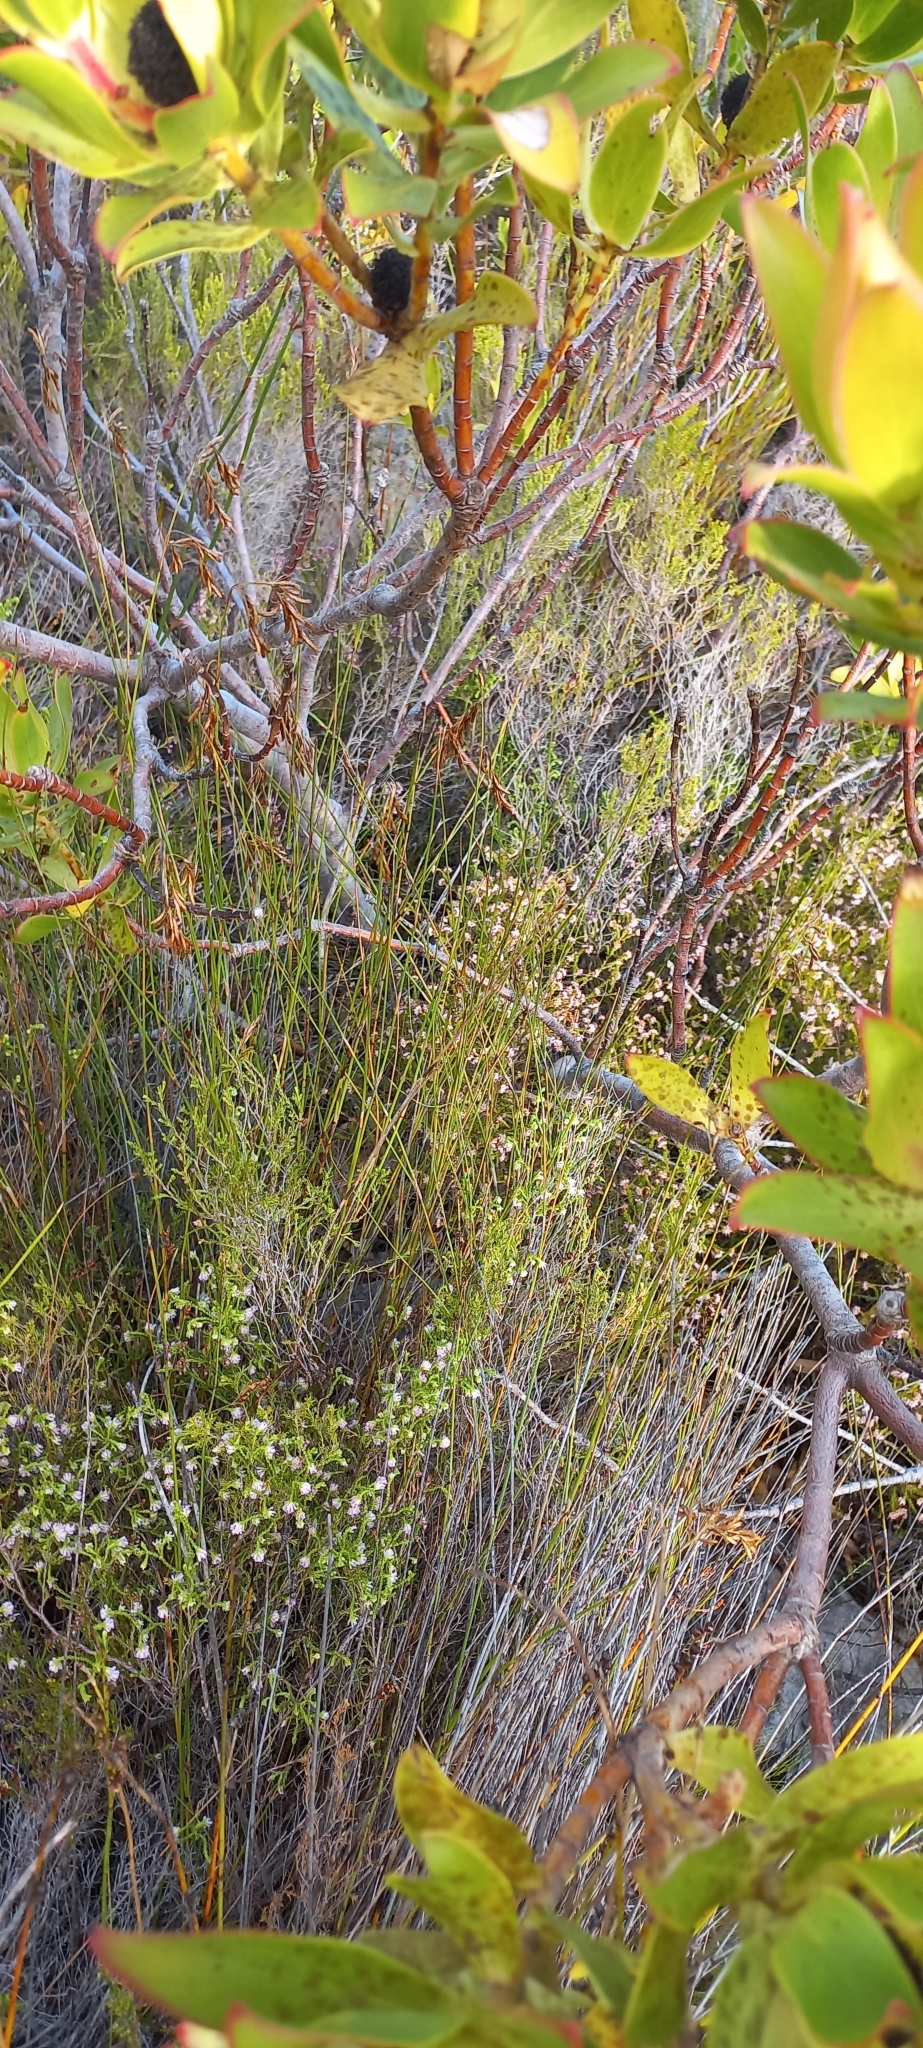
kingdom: Plantae
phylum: Tracheophyta
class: Magnoliopsida
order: Proteales
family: Proteaceae
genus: Leucadendron
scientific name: Leucadendron gandogeri
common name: Broad-leaf conebush
